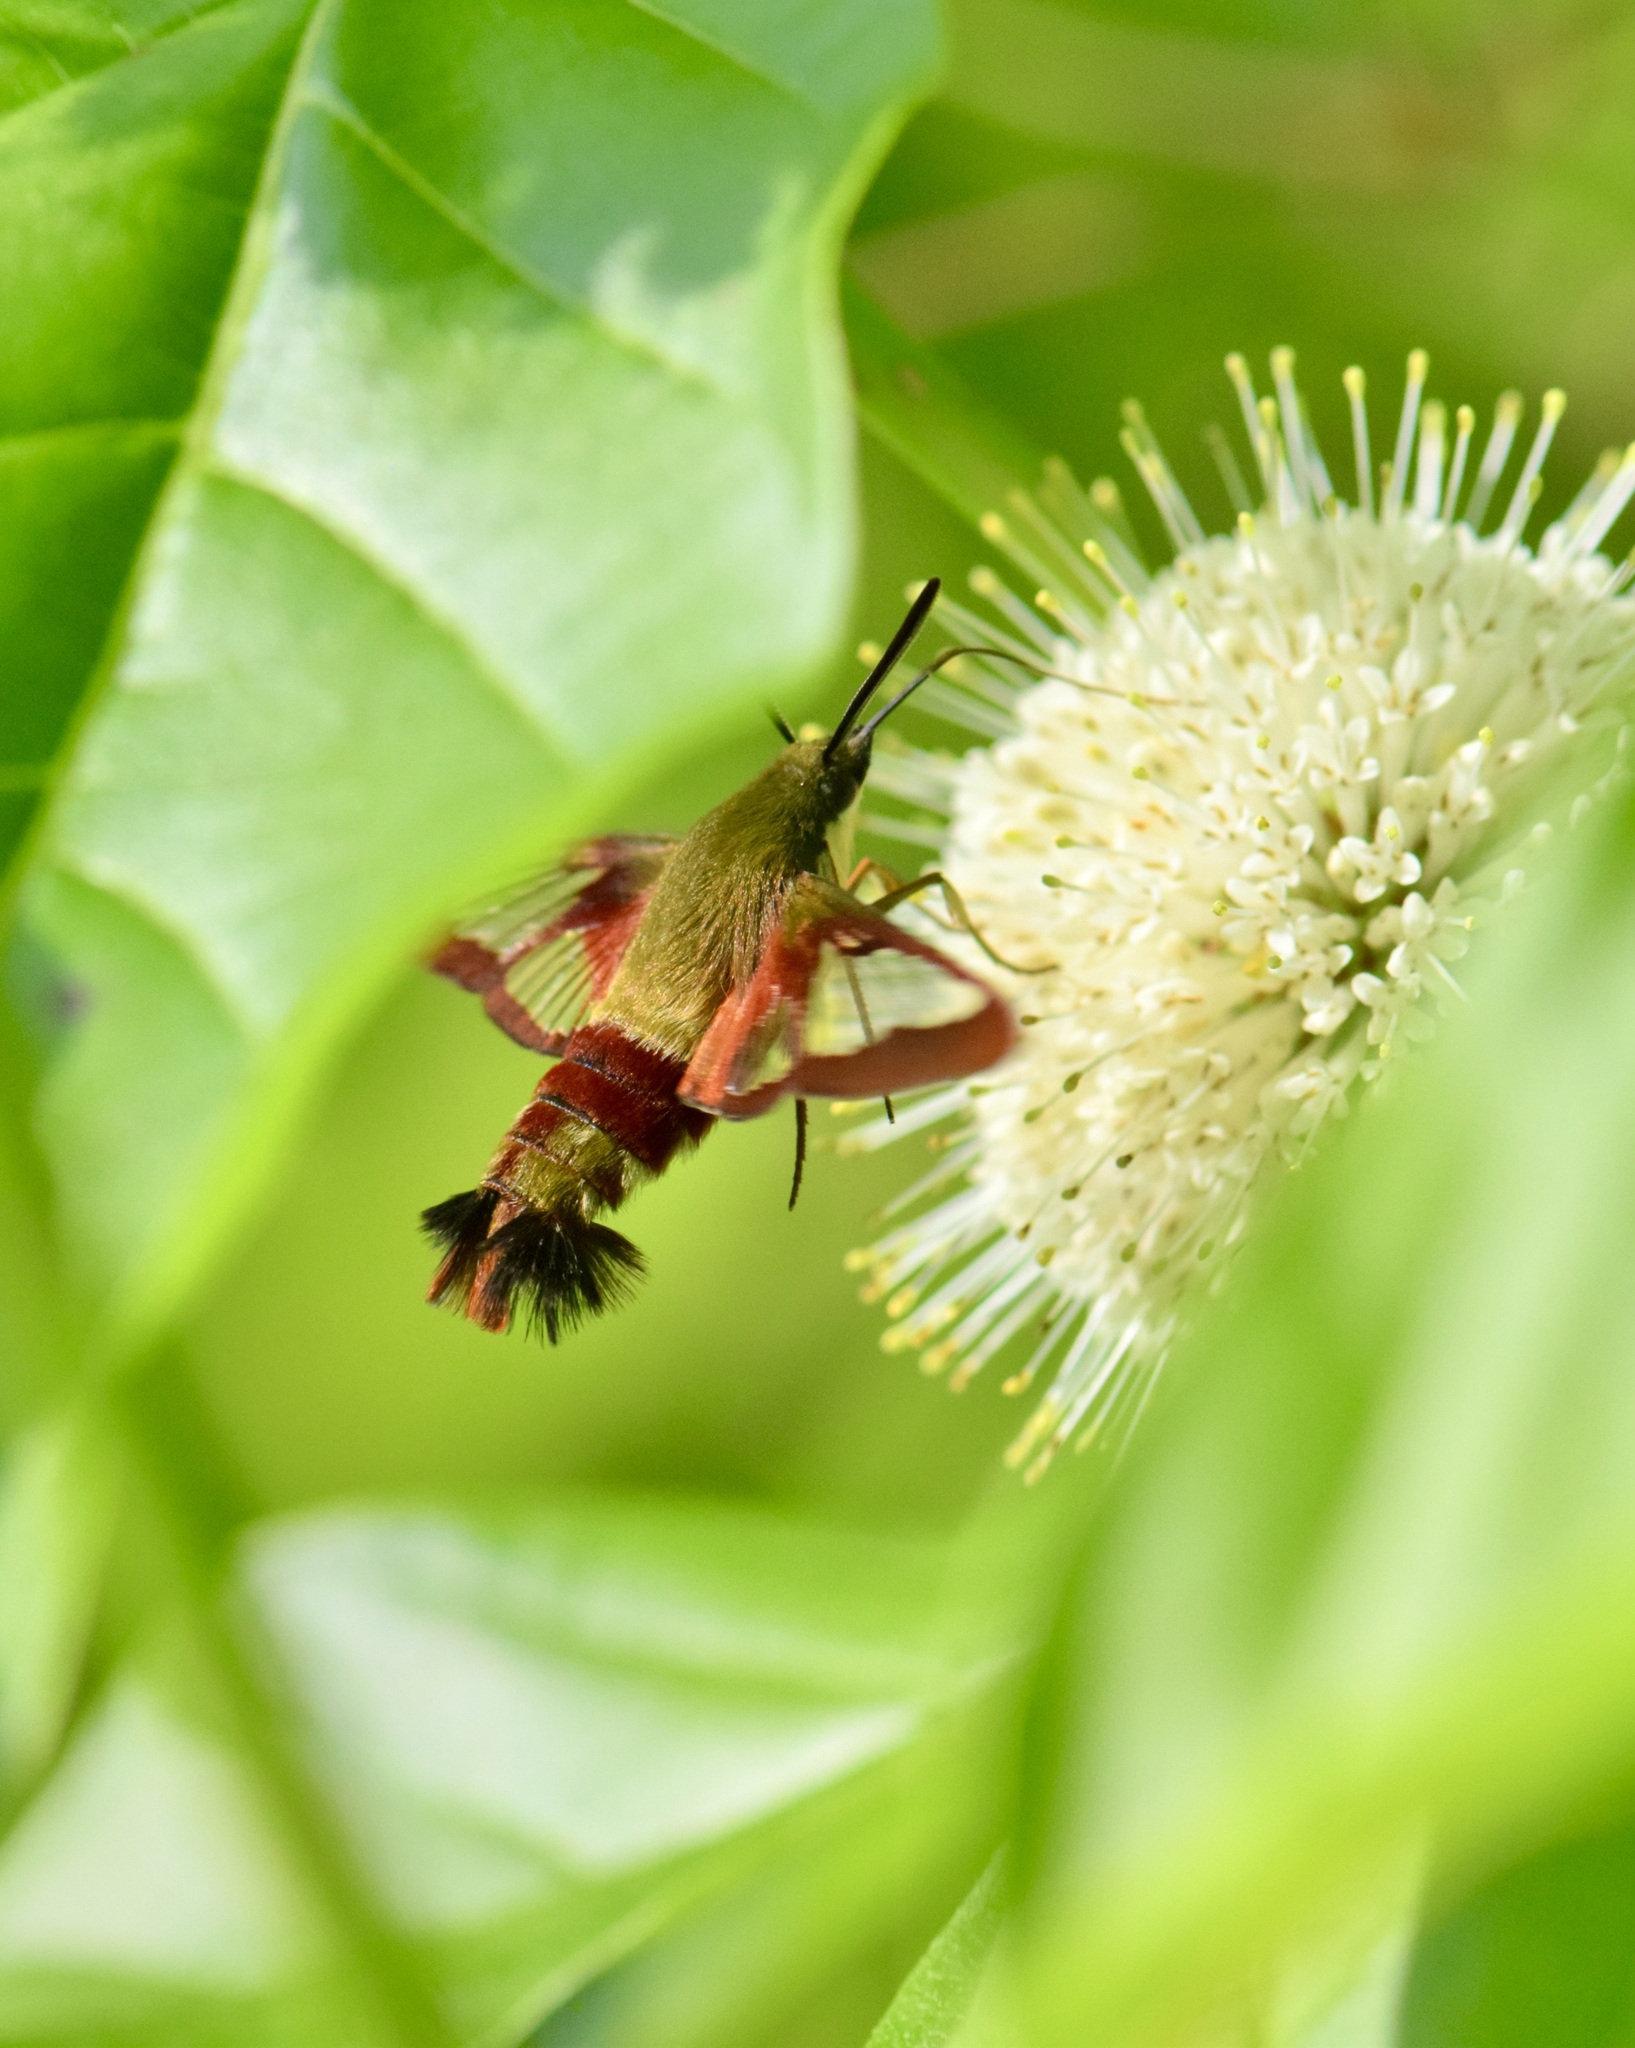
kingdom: Animalia
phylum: Arthropoda
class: Insecta
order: Lepidoptera
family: Sphingidae
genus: Hemaris
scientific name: Hemaris thysbe
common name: Common clear-wing
